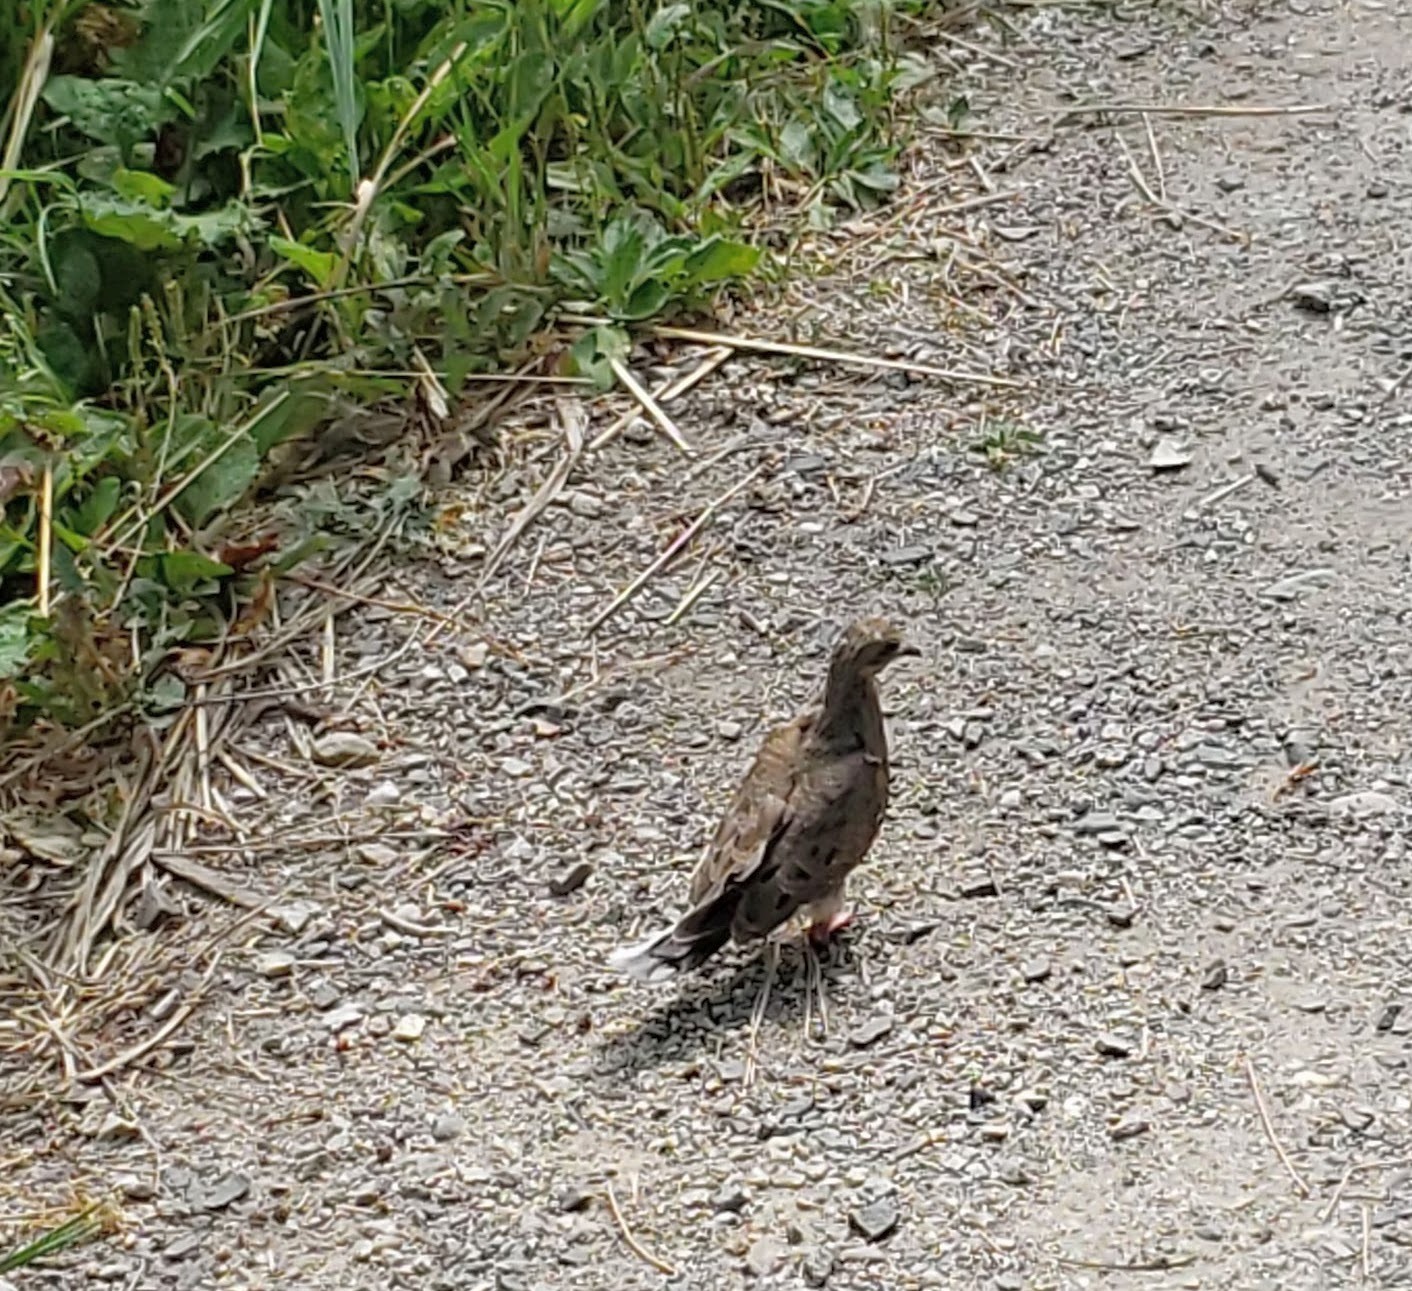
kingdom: Animalia
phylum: Chordata
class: Aves
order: Columbiformes
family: Columbidae
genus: Zenaida
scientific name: Zenaida macroura
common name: Mourning dove
